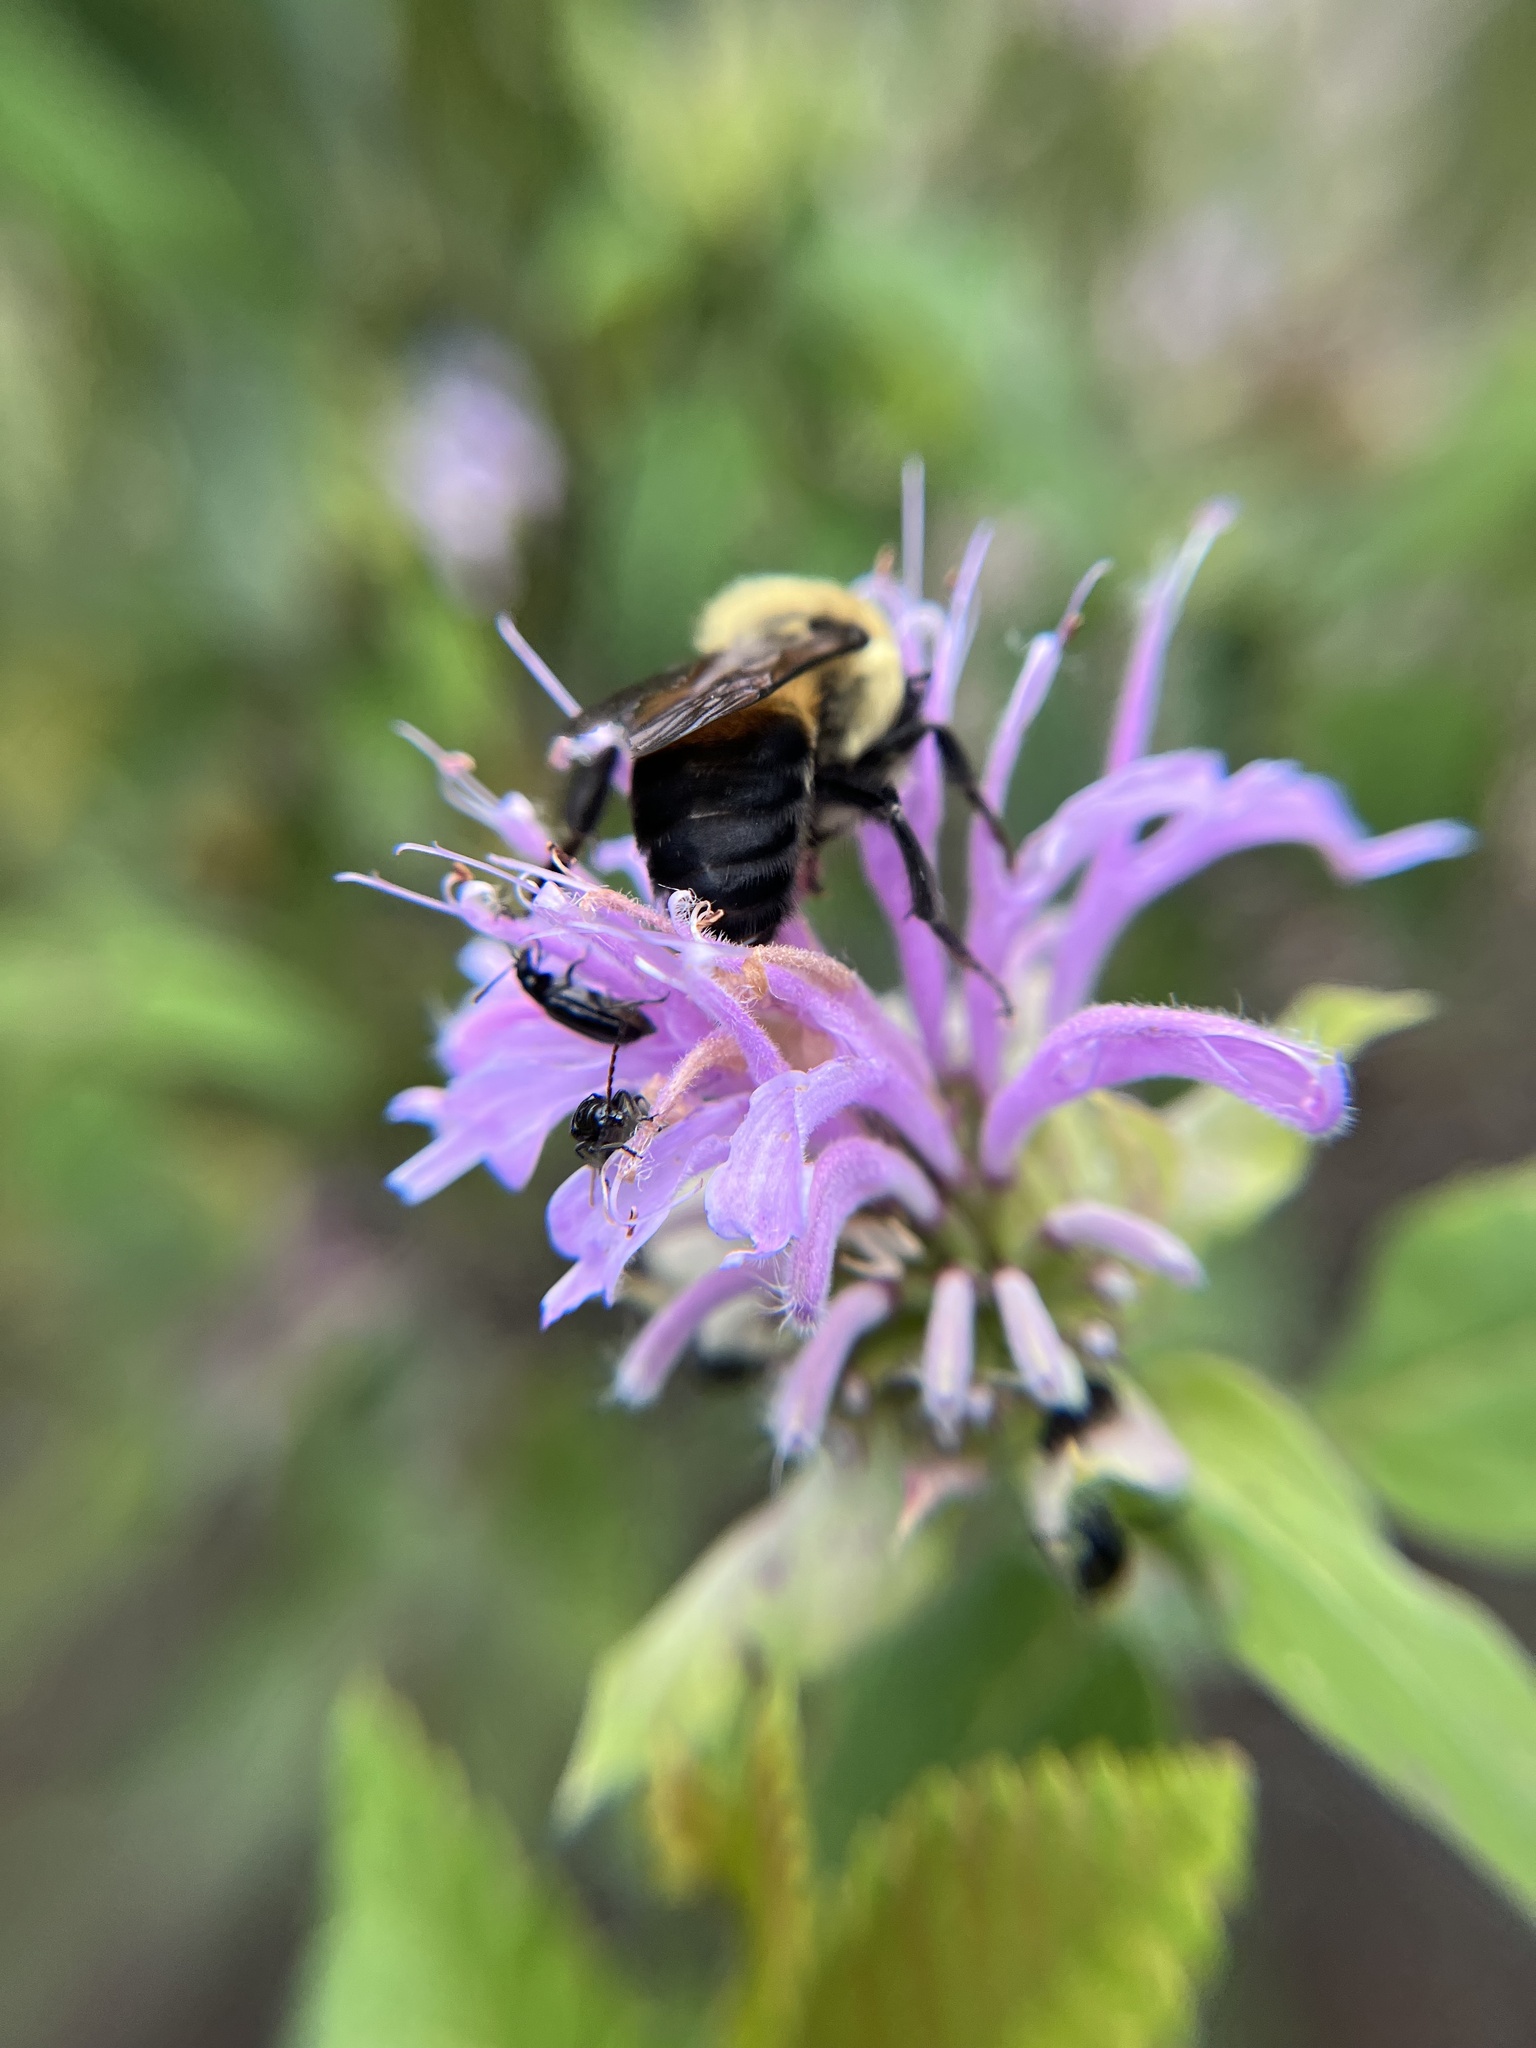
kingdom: Animalia
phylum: Arthropoda
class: Insecta
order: Hymenoptera
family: Apidae
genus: Bombus
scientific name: Bombus griseocollis
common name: Brown-belted bumble bee
